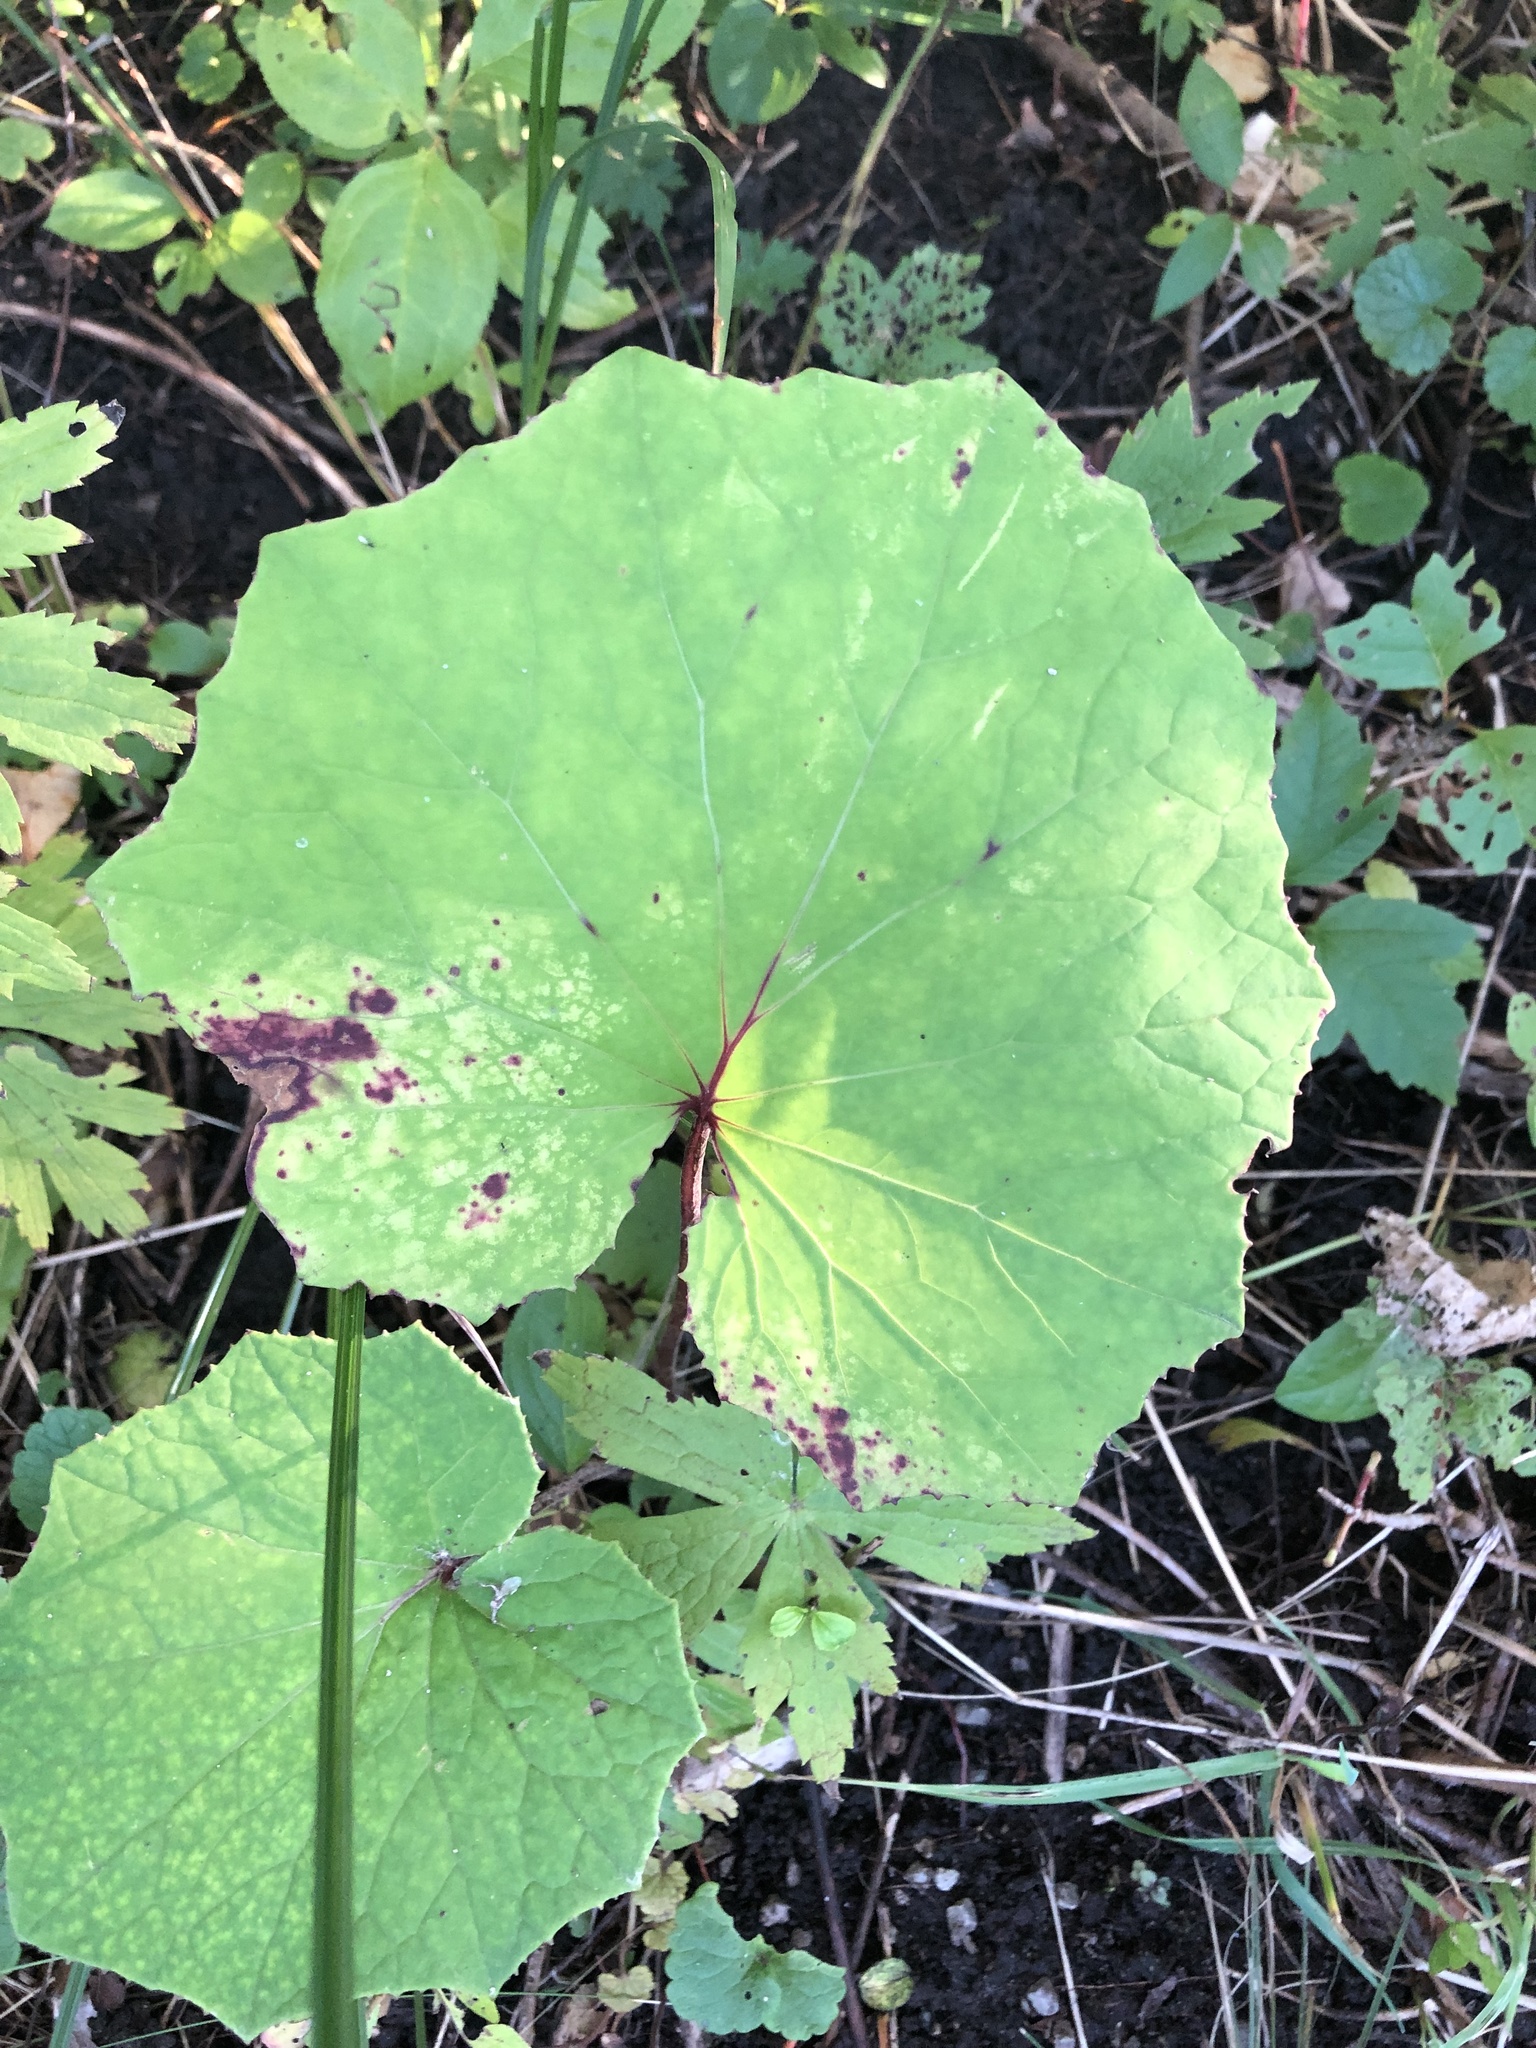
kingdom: Plantae
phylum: Tracheophyta
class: Magnoliopsida
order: Asterales
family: Asteraceae
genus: Tussilago
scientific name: Tussilago farfara
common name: Coltsfoot
